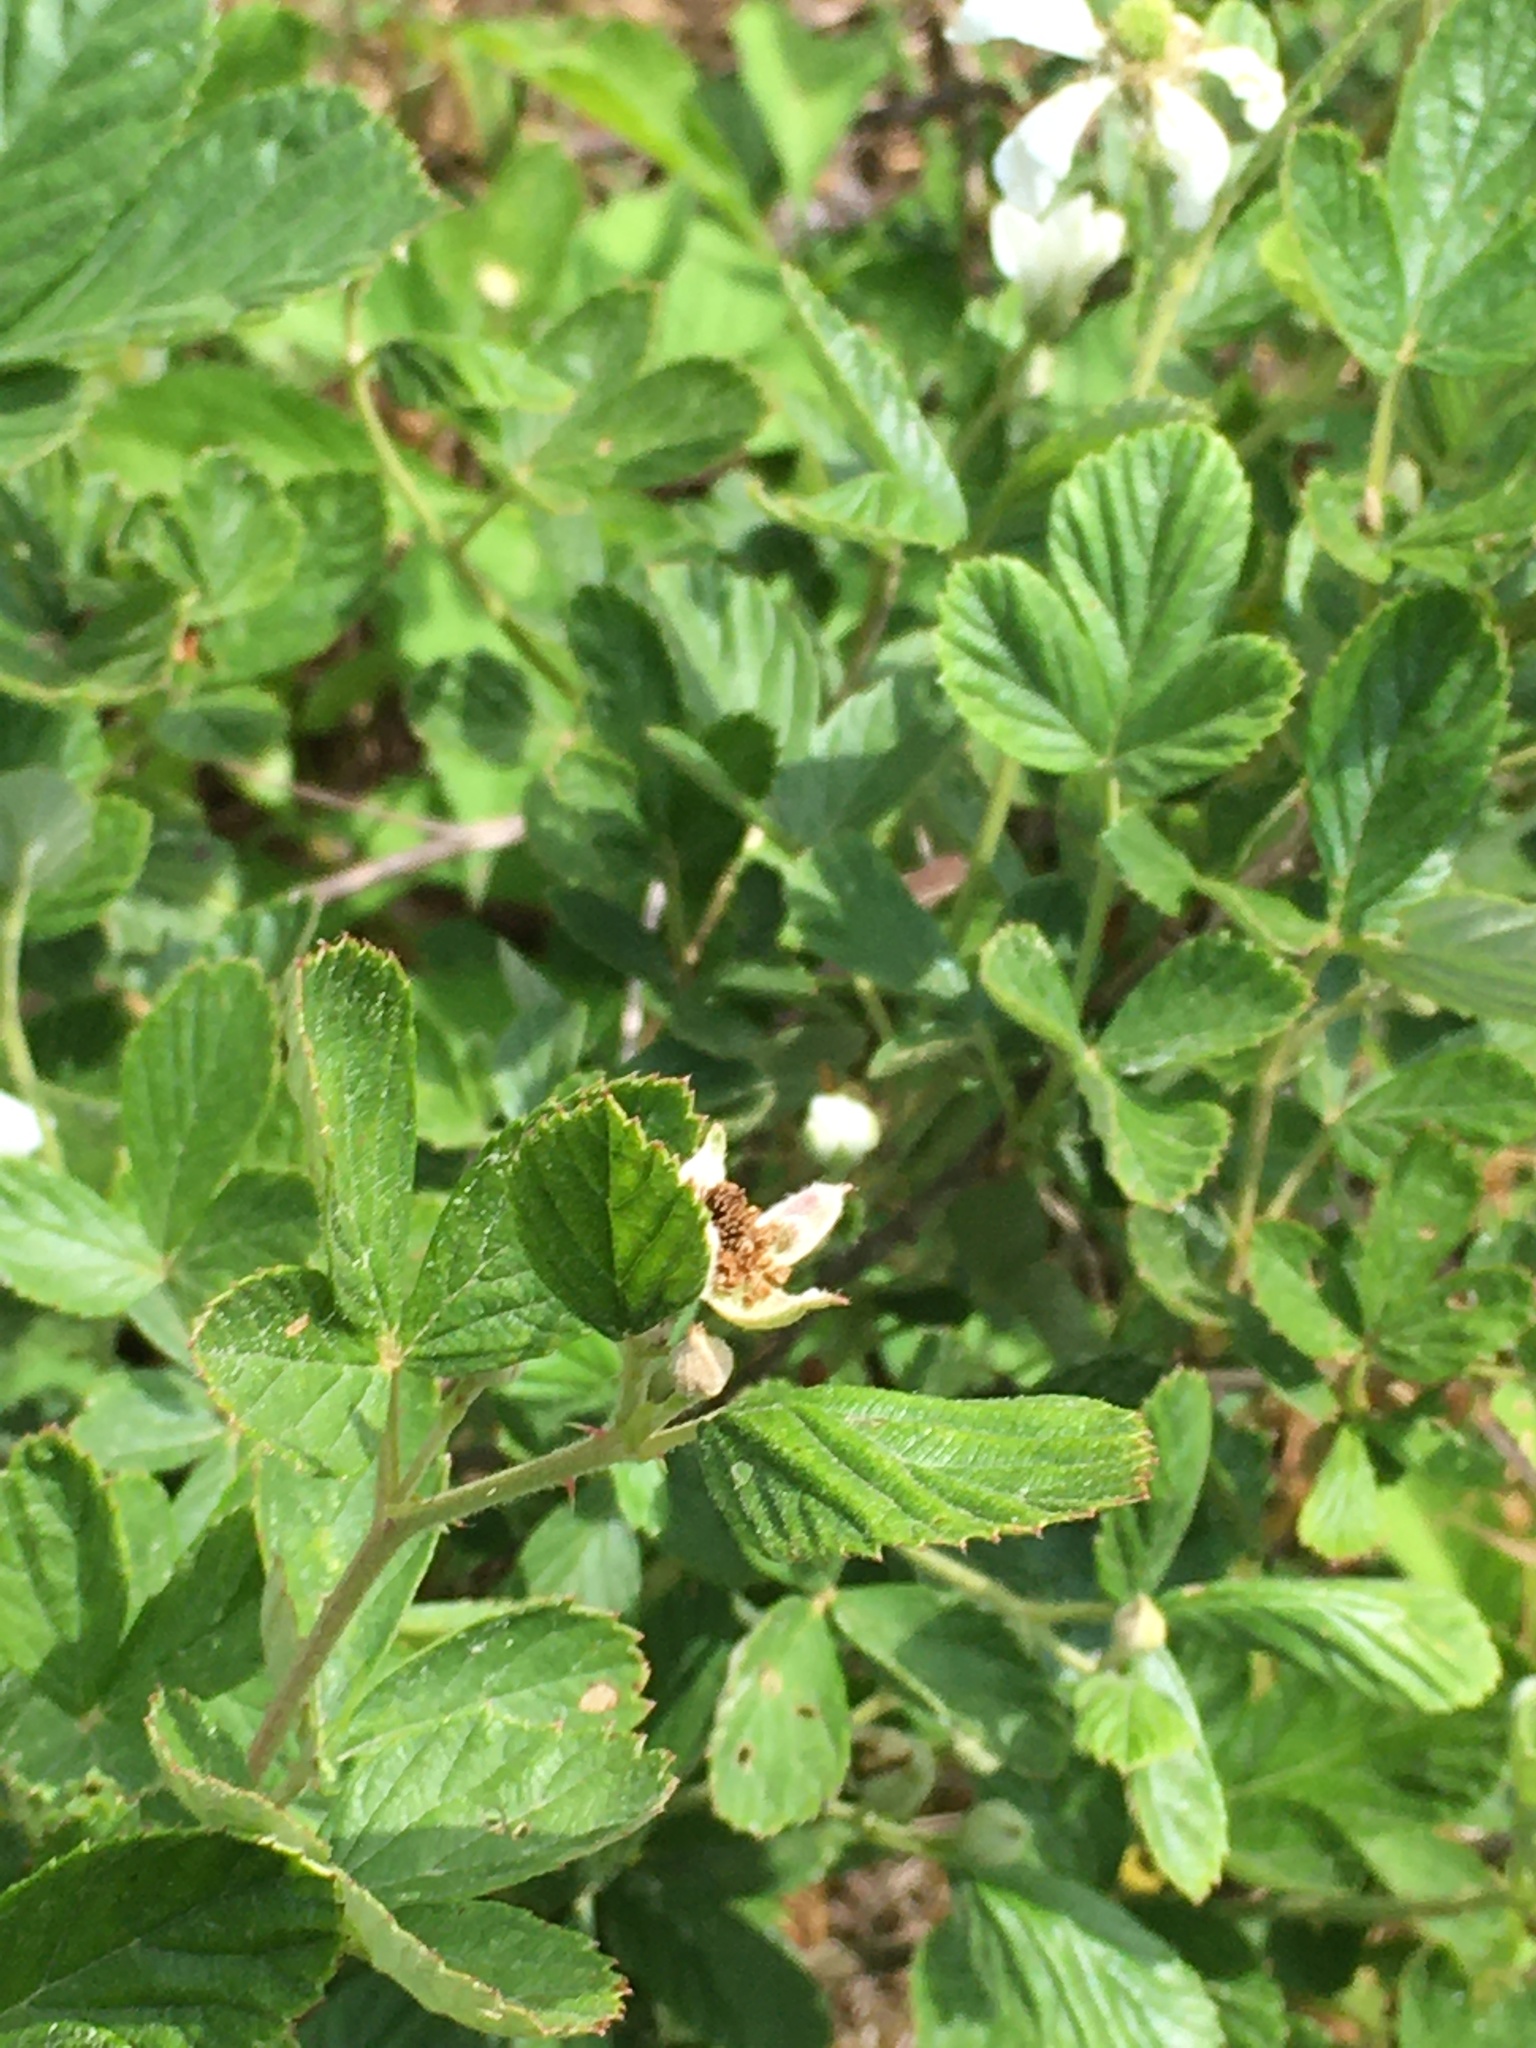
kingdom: Plantae
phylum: Tracheophyta
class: Magnoliopsida
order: Rosales
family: Rosaceae
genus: Rubus
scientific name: Rubus cuneifolius
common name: American bramble
